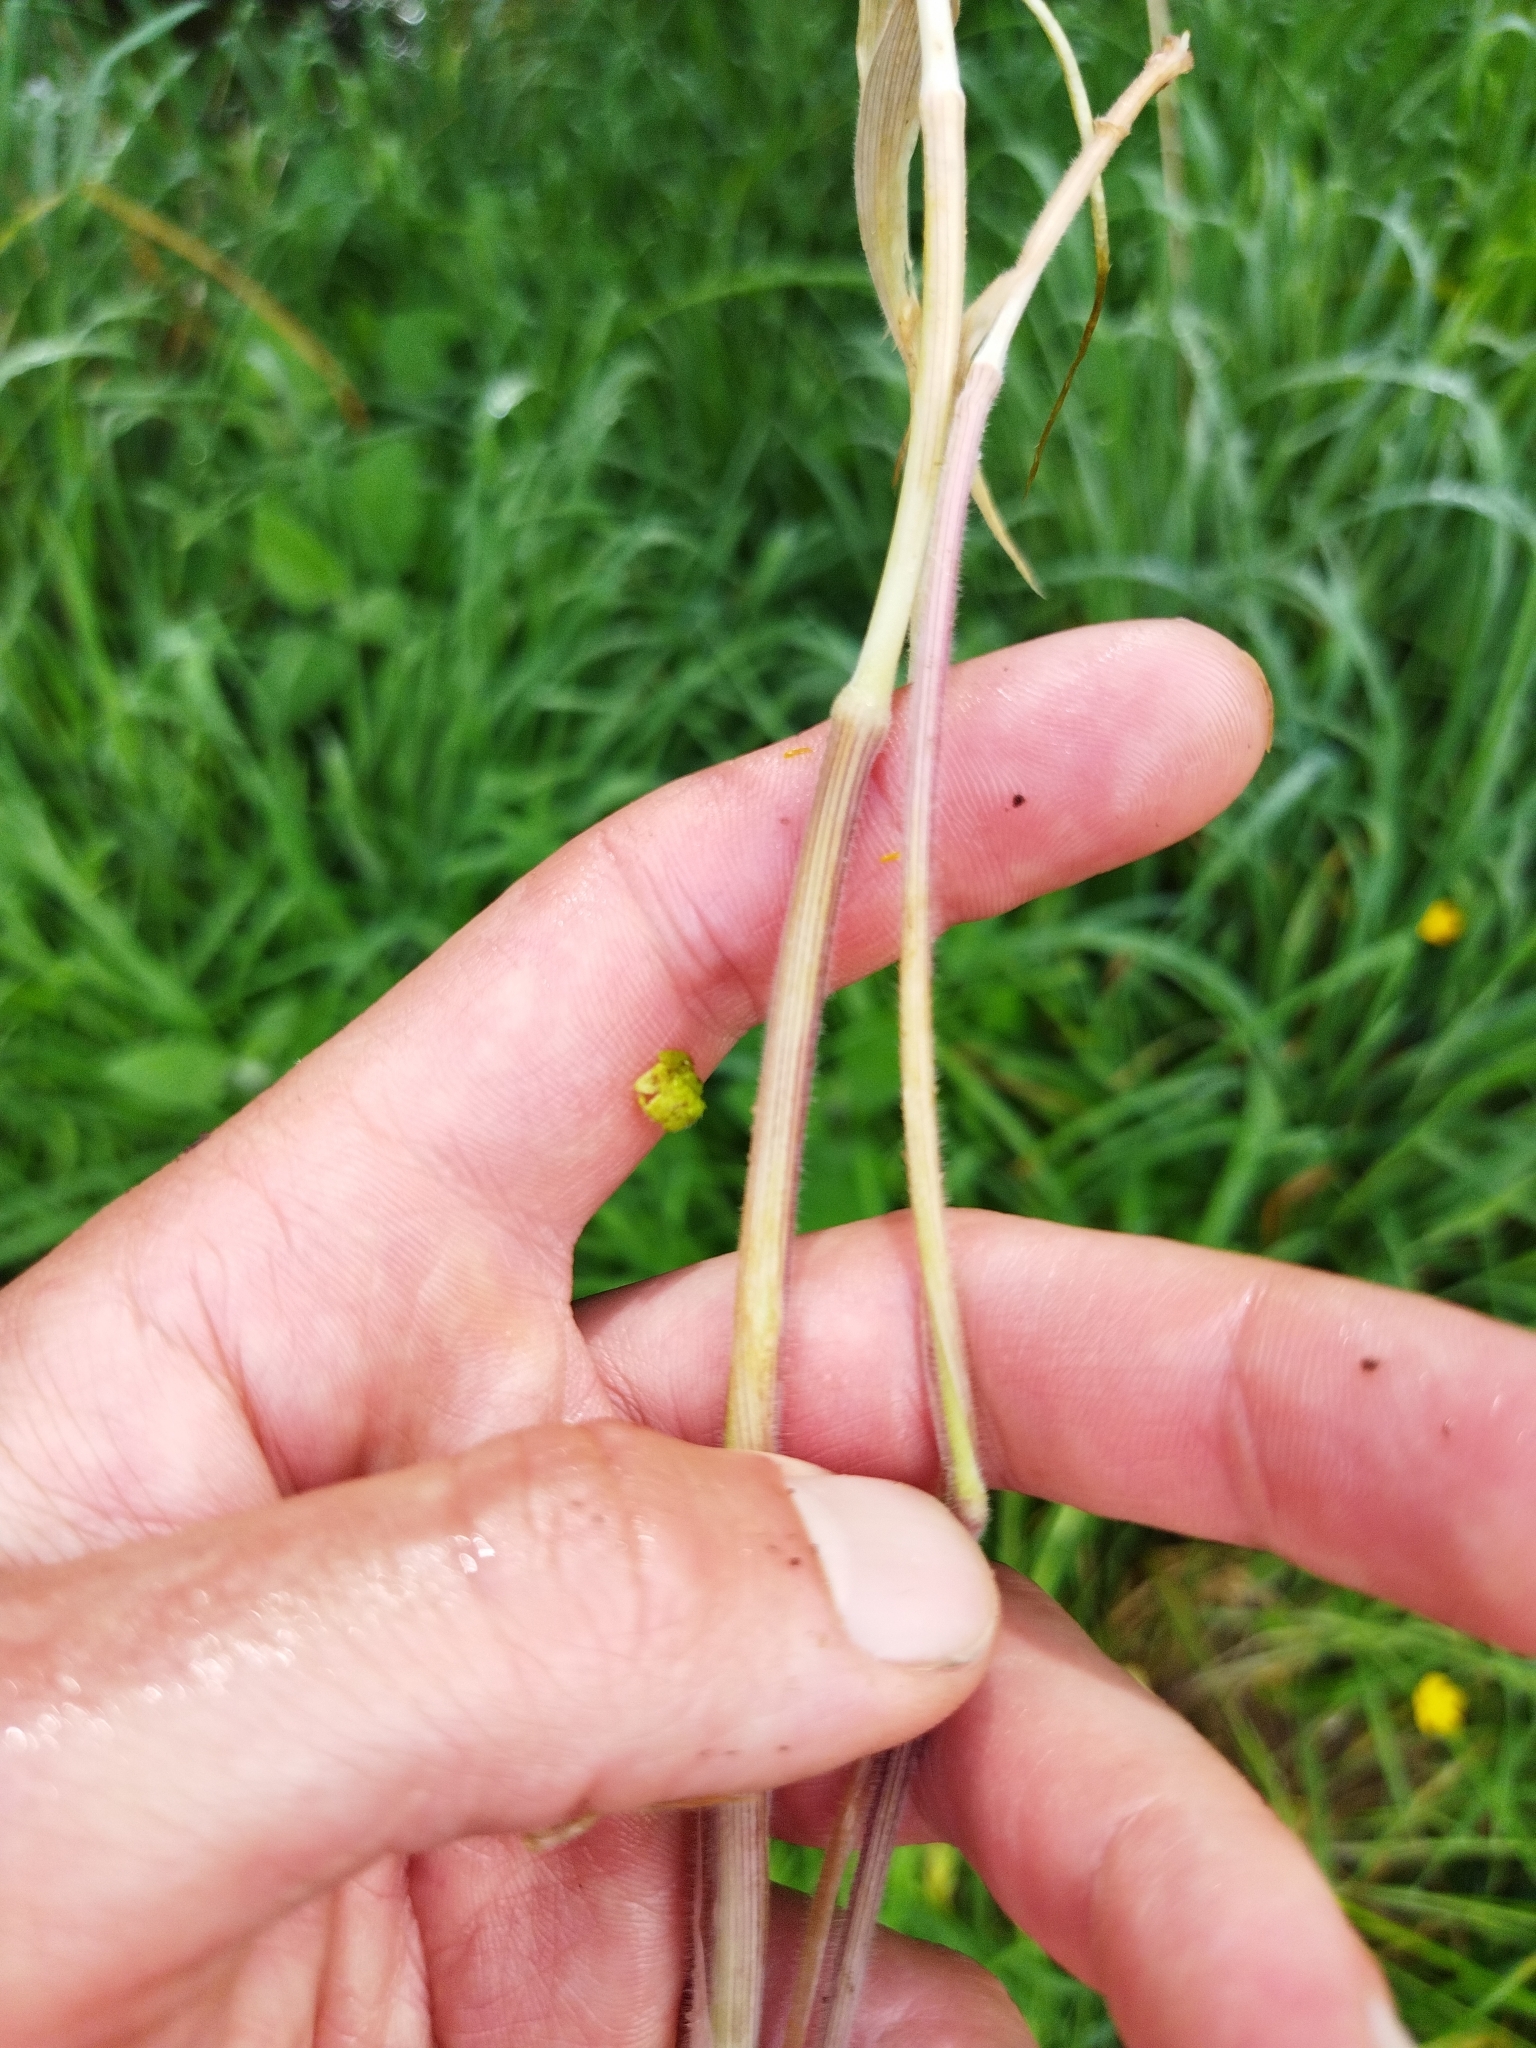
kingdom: Plantae
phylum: Tracheophyta
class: Liliopsida
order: Poales
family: Poaceae
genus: Holcus
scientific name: Holcus lanatus
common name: Yorkshire-fog
